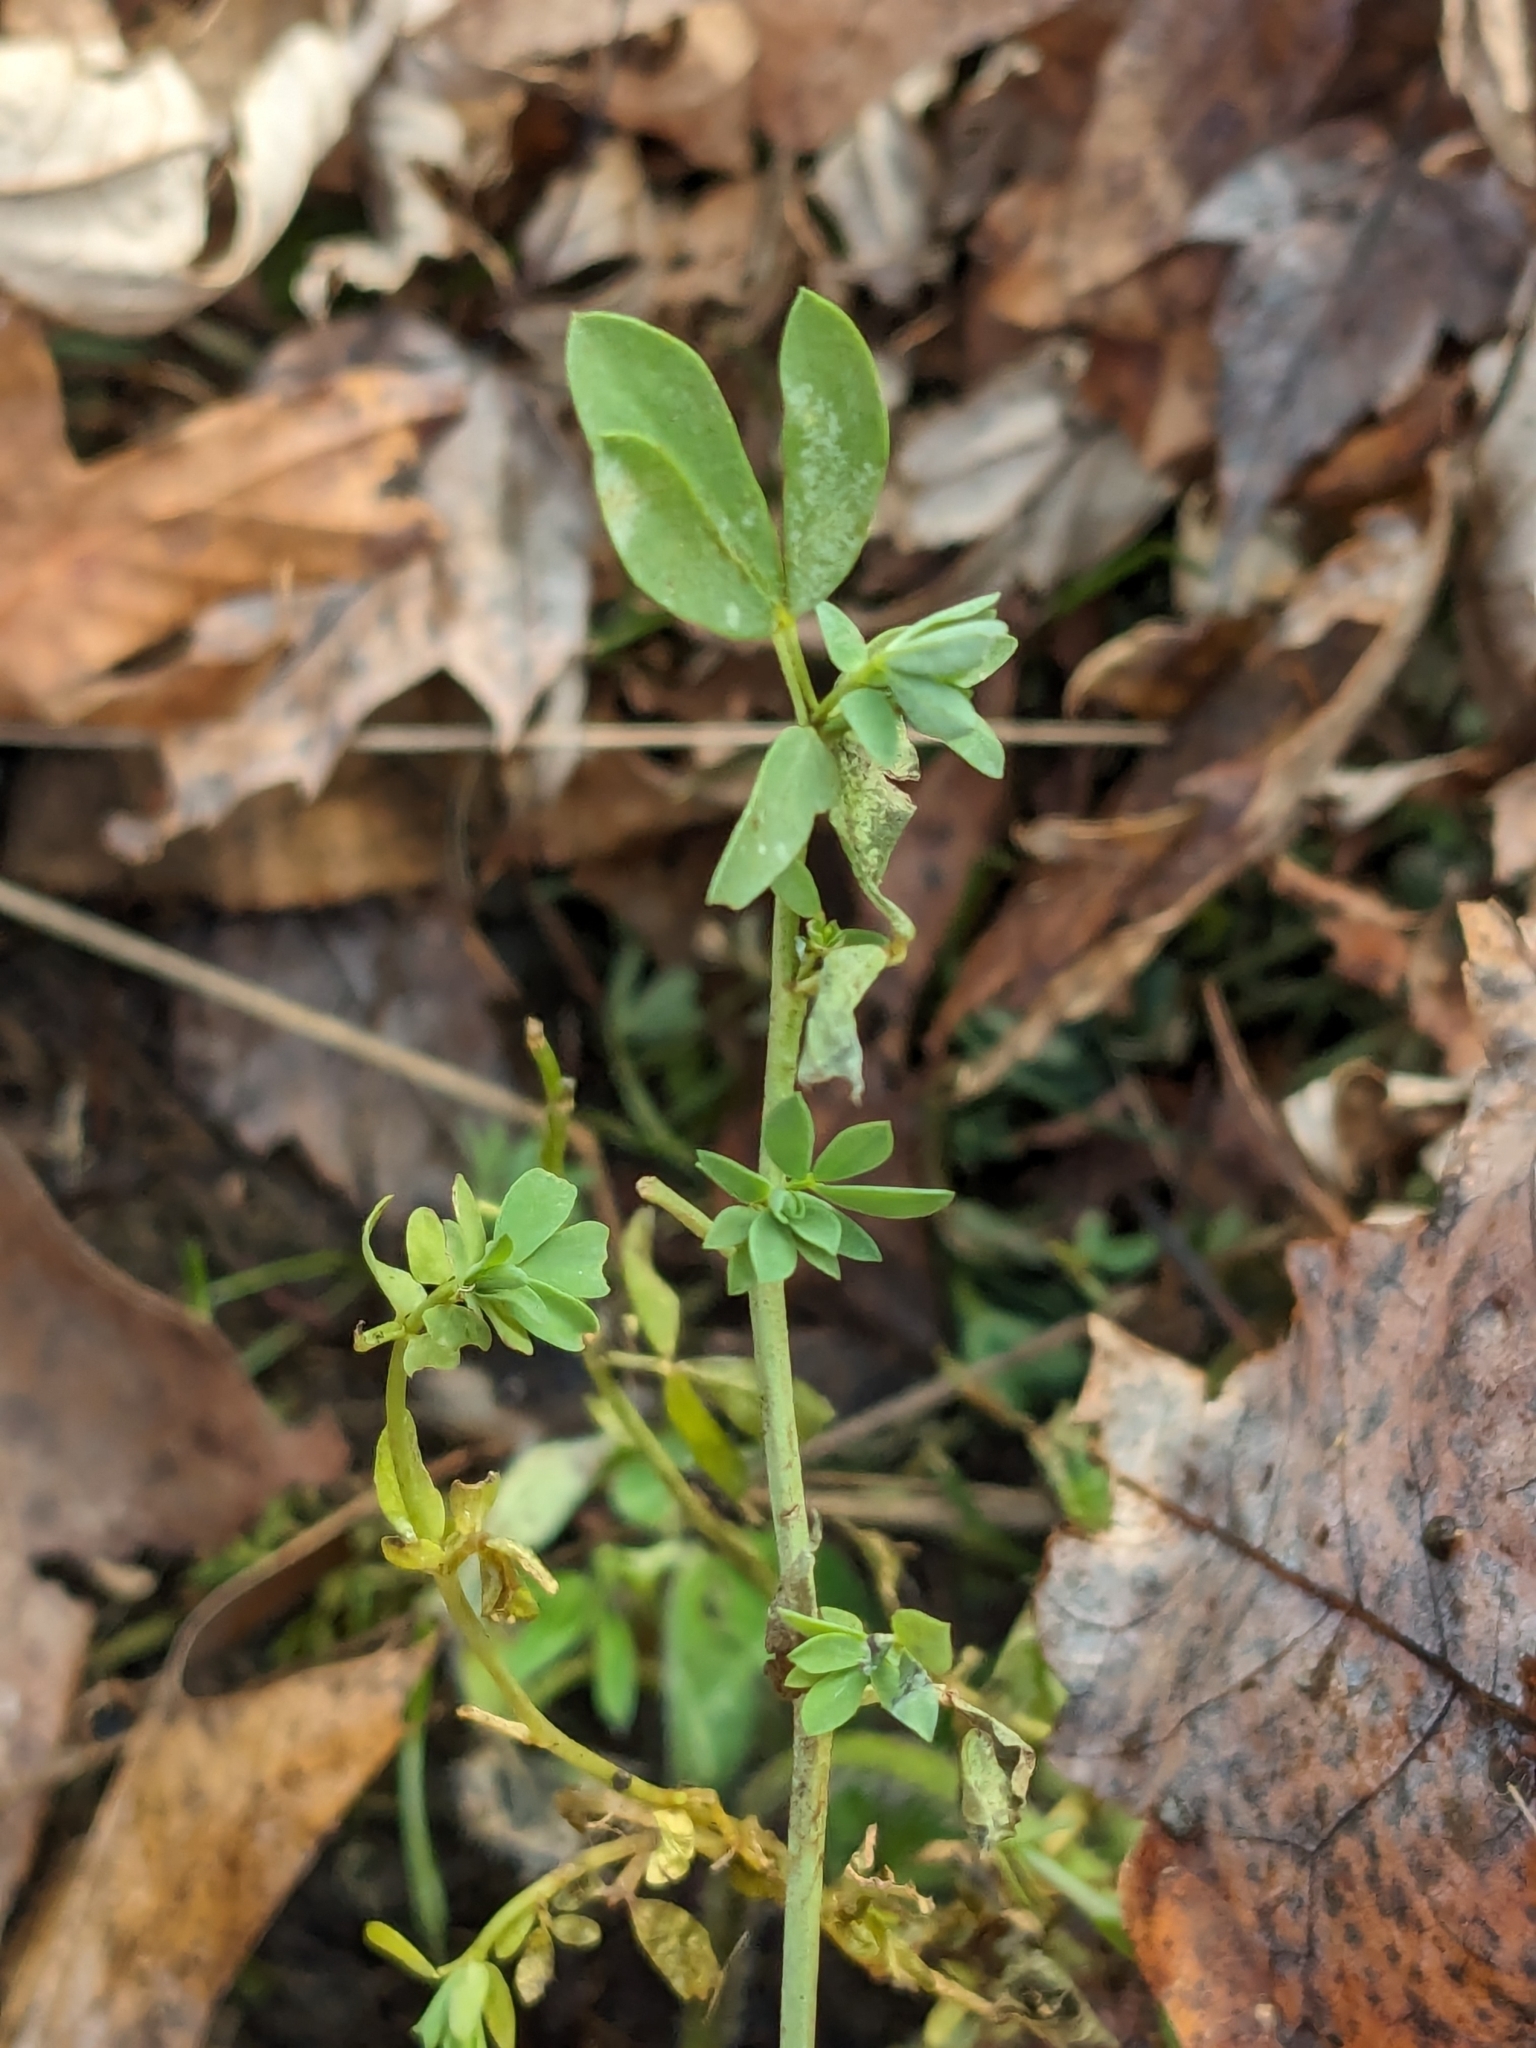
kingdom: Plantae
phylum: Tracheophyta
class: Magnoliopsida
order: Fabales
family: Fabaceae
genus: Lotus
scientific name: Lotus corniculatus
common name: Common bird's-foot-trefoil
